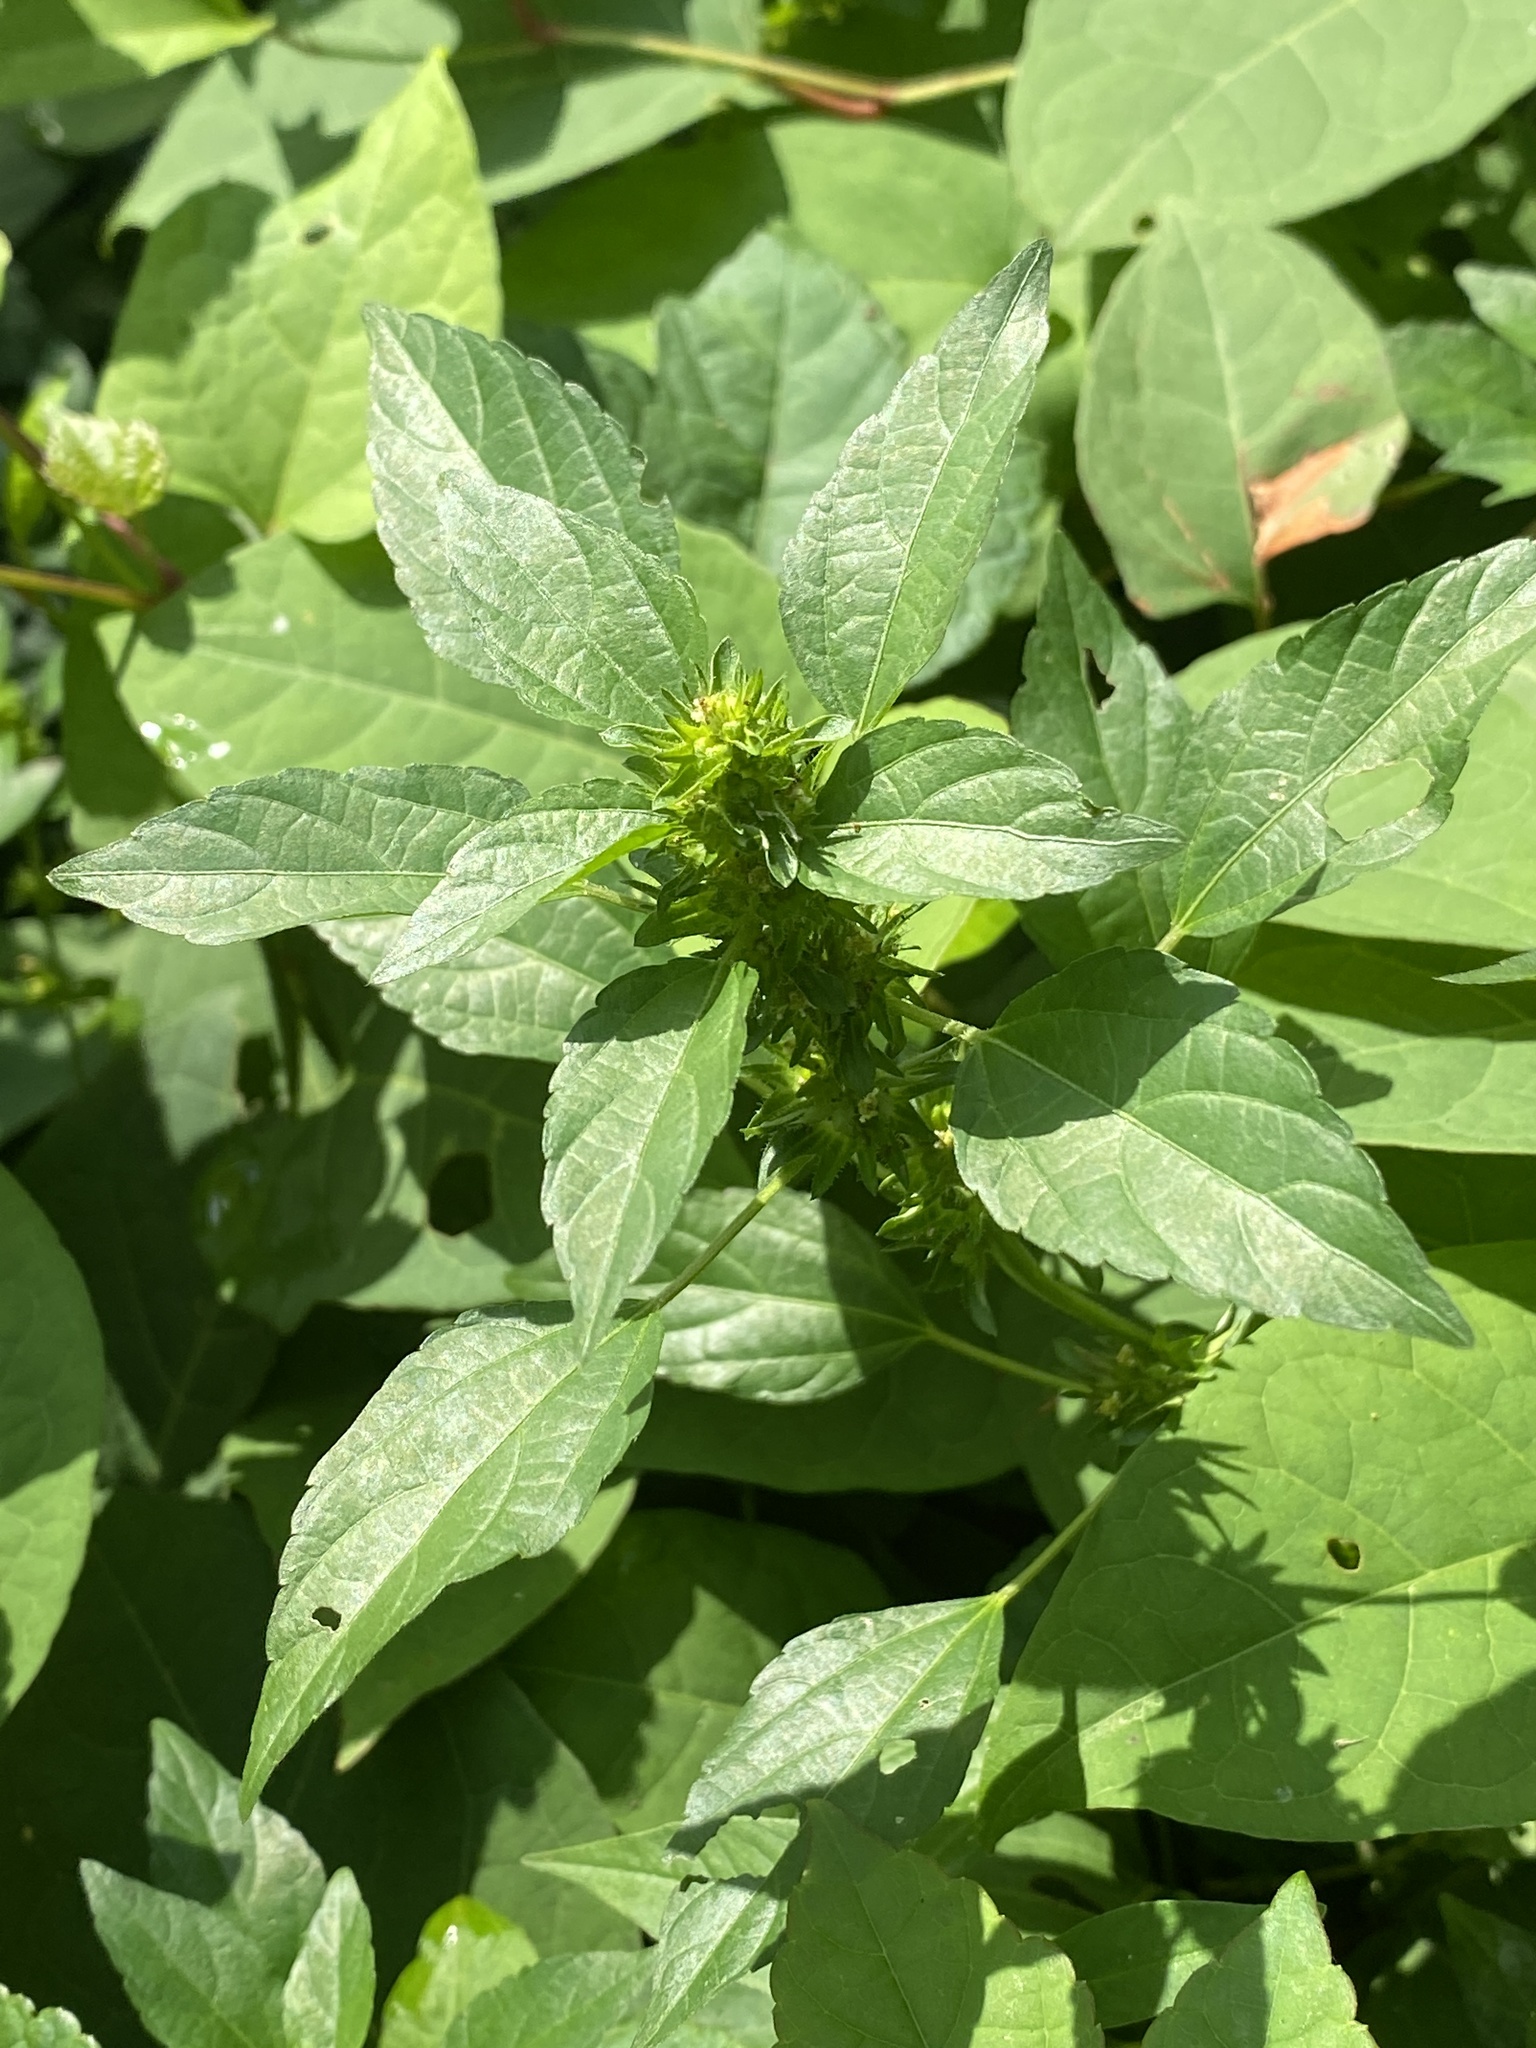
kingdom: Plantae
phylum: Tracheophyta
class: Magnoliopsida
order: Malpighiales
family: Euphorbiaceae
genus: Acalypha
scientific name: Acalypha rhomboidea
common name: Rhombic copperleaf
